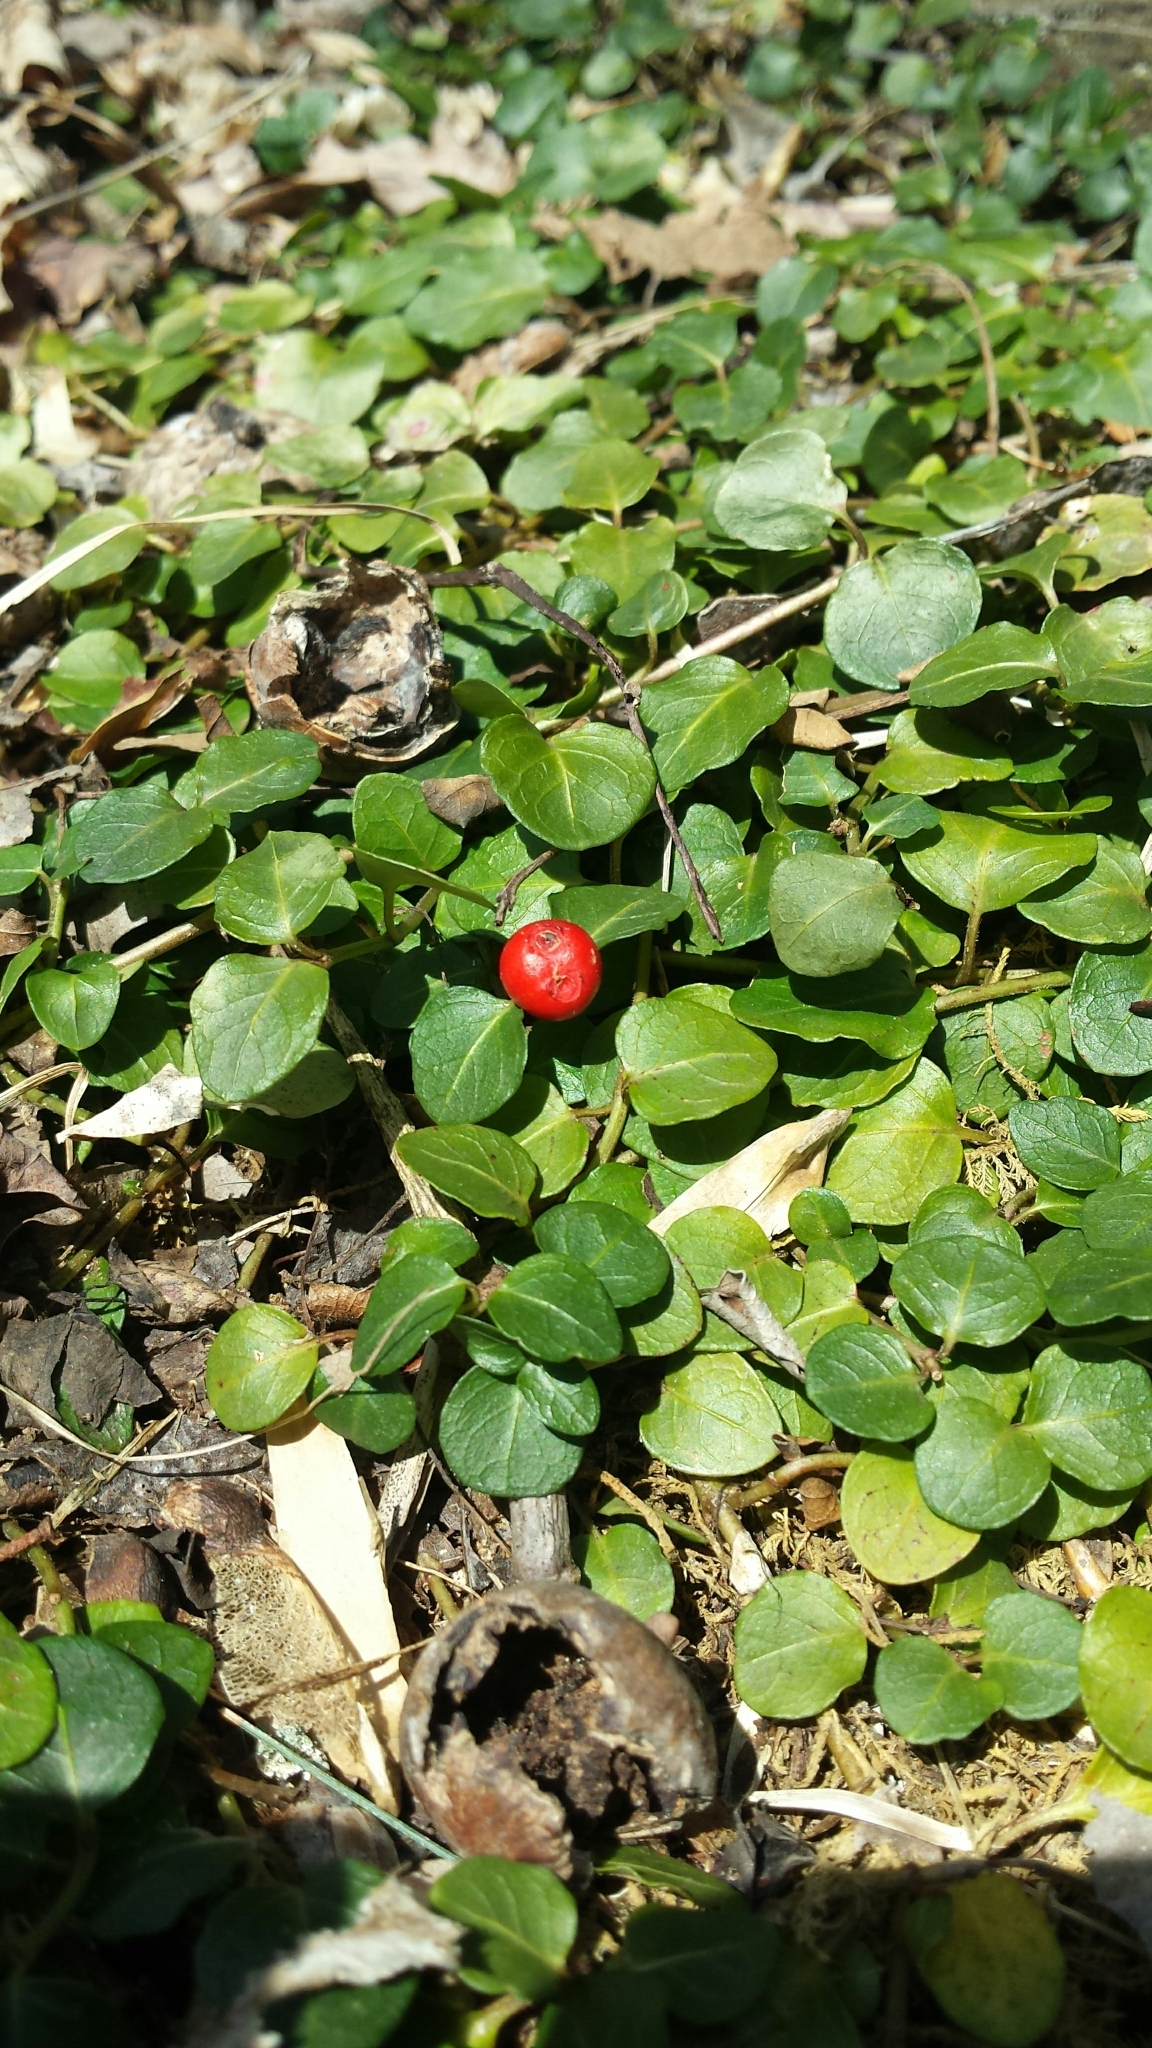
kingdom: Plantae
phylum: Tracheophyta
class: Magnoliopsida
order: Gentianales
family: Rubiaceae
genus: Mitchella
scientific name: Mitchella repens
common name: Partridge-berry
